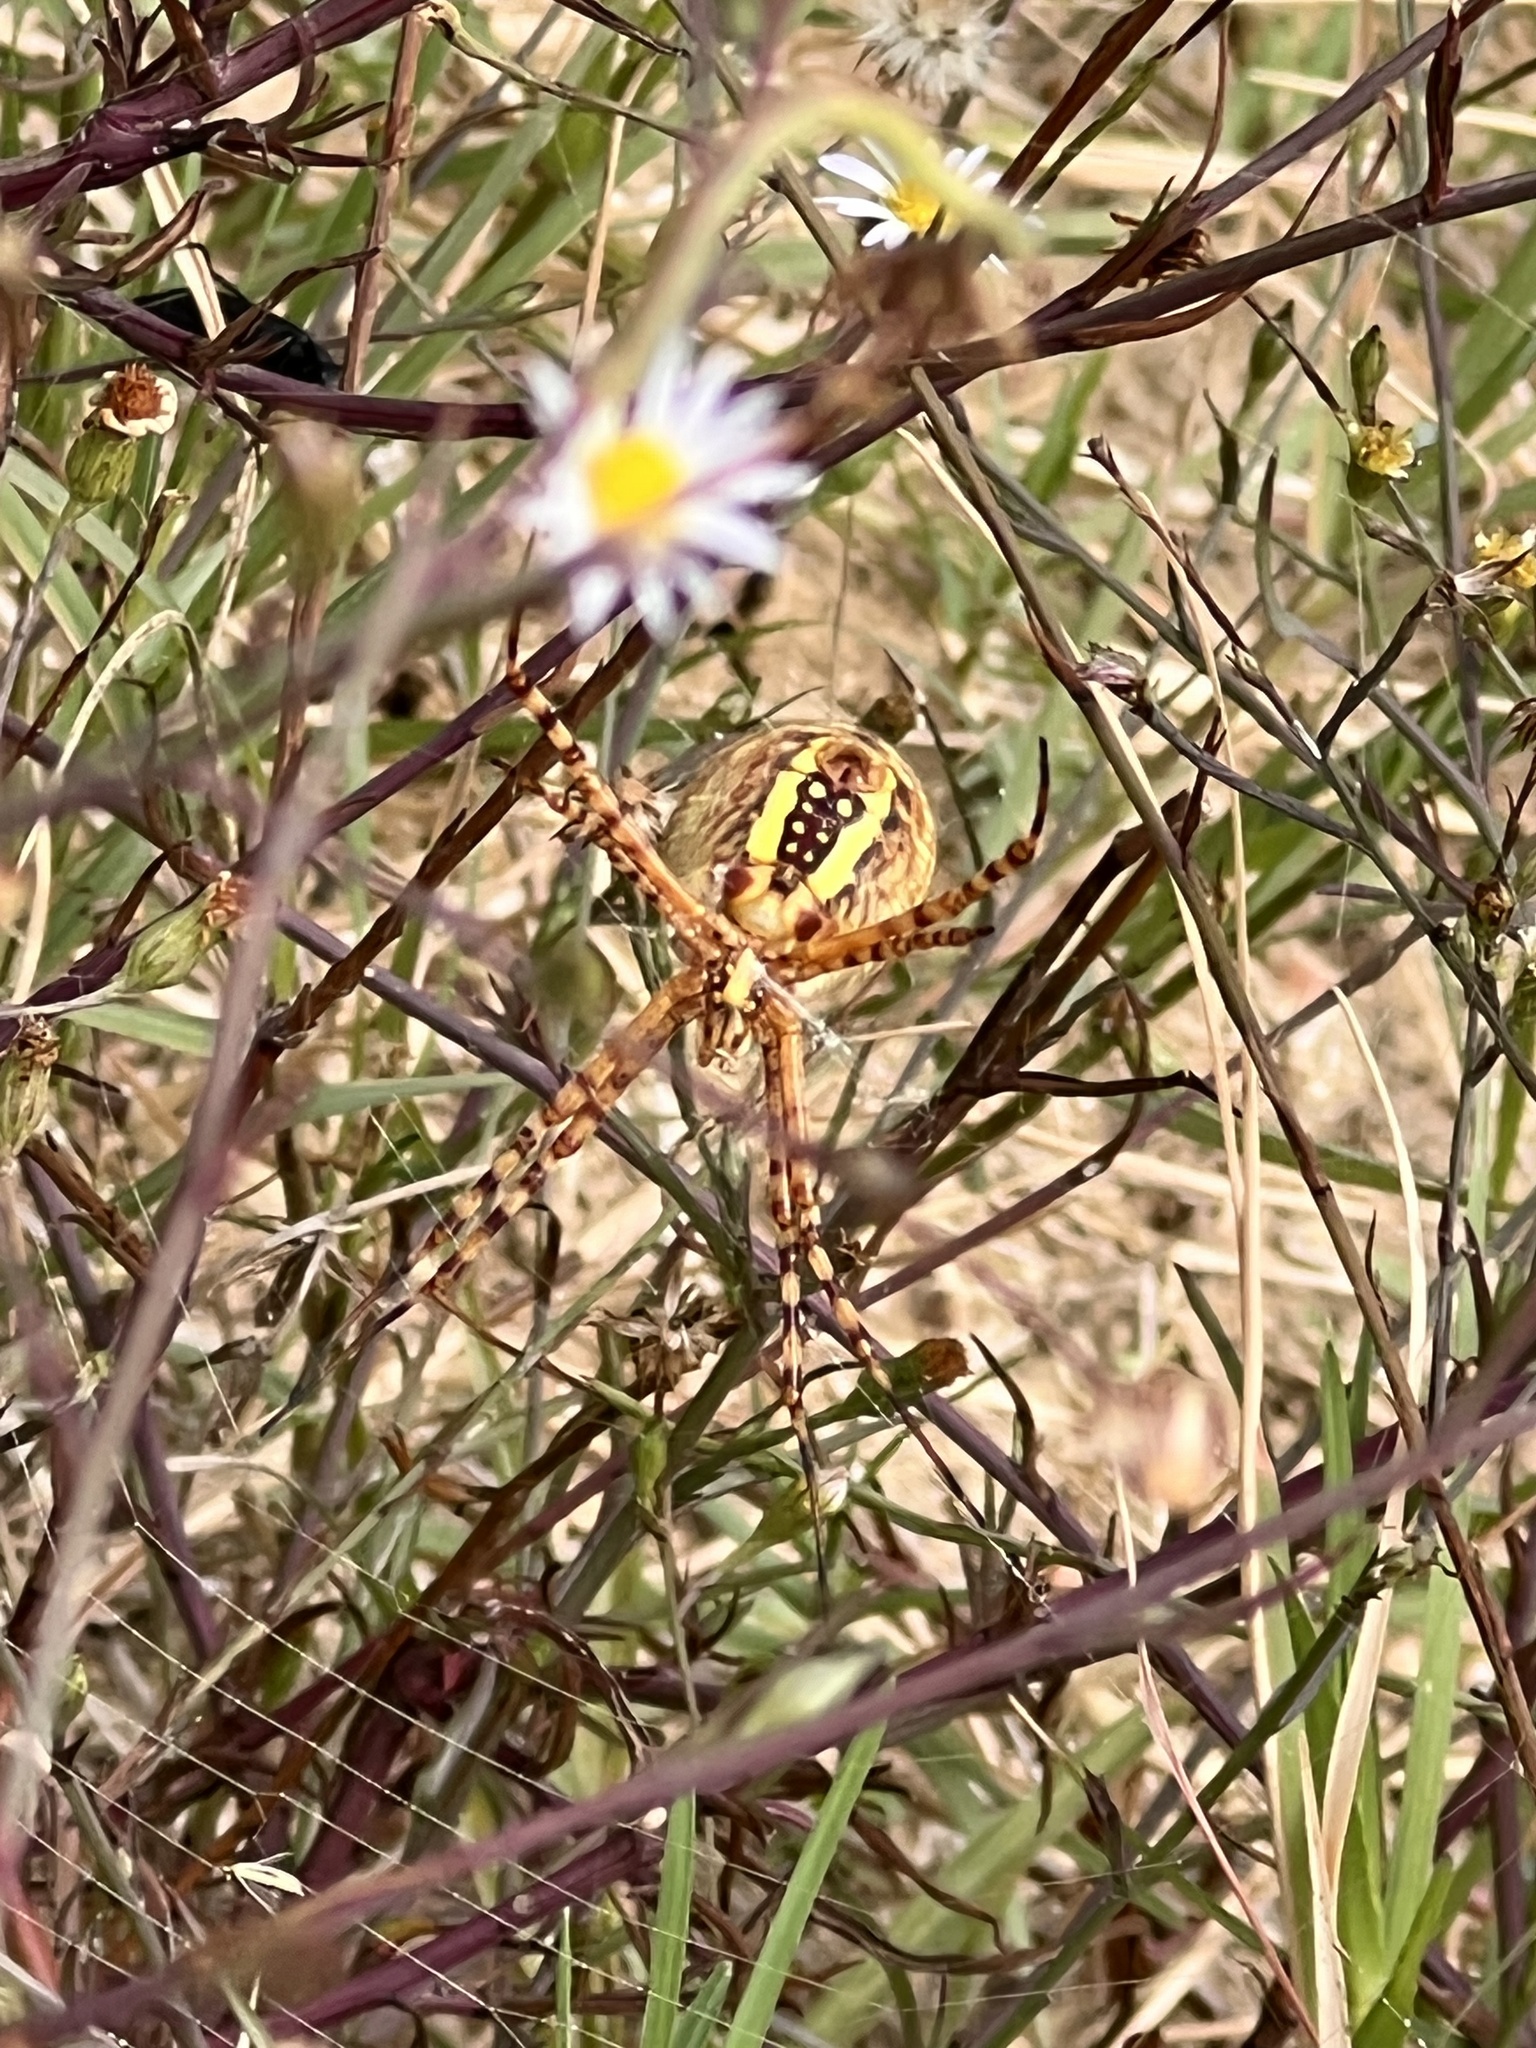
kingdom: Animalia
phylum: Arthropoda
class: Arachnida
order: Araneae
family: Araneidae
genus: Argiope
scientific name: Argiope trifasciata
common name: Banded garden spider
